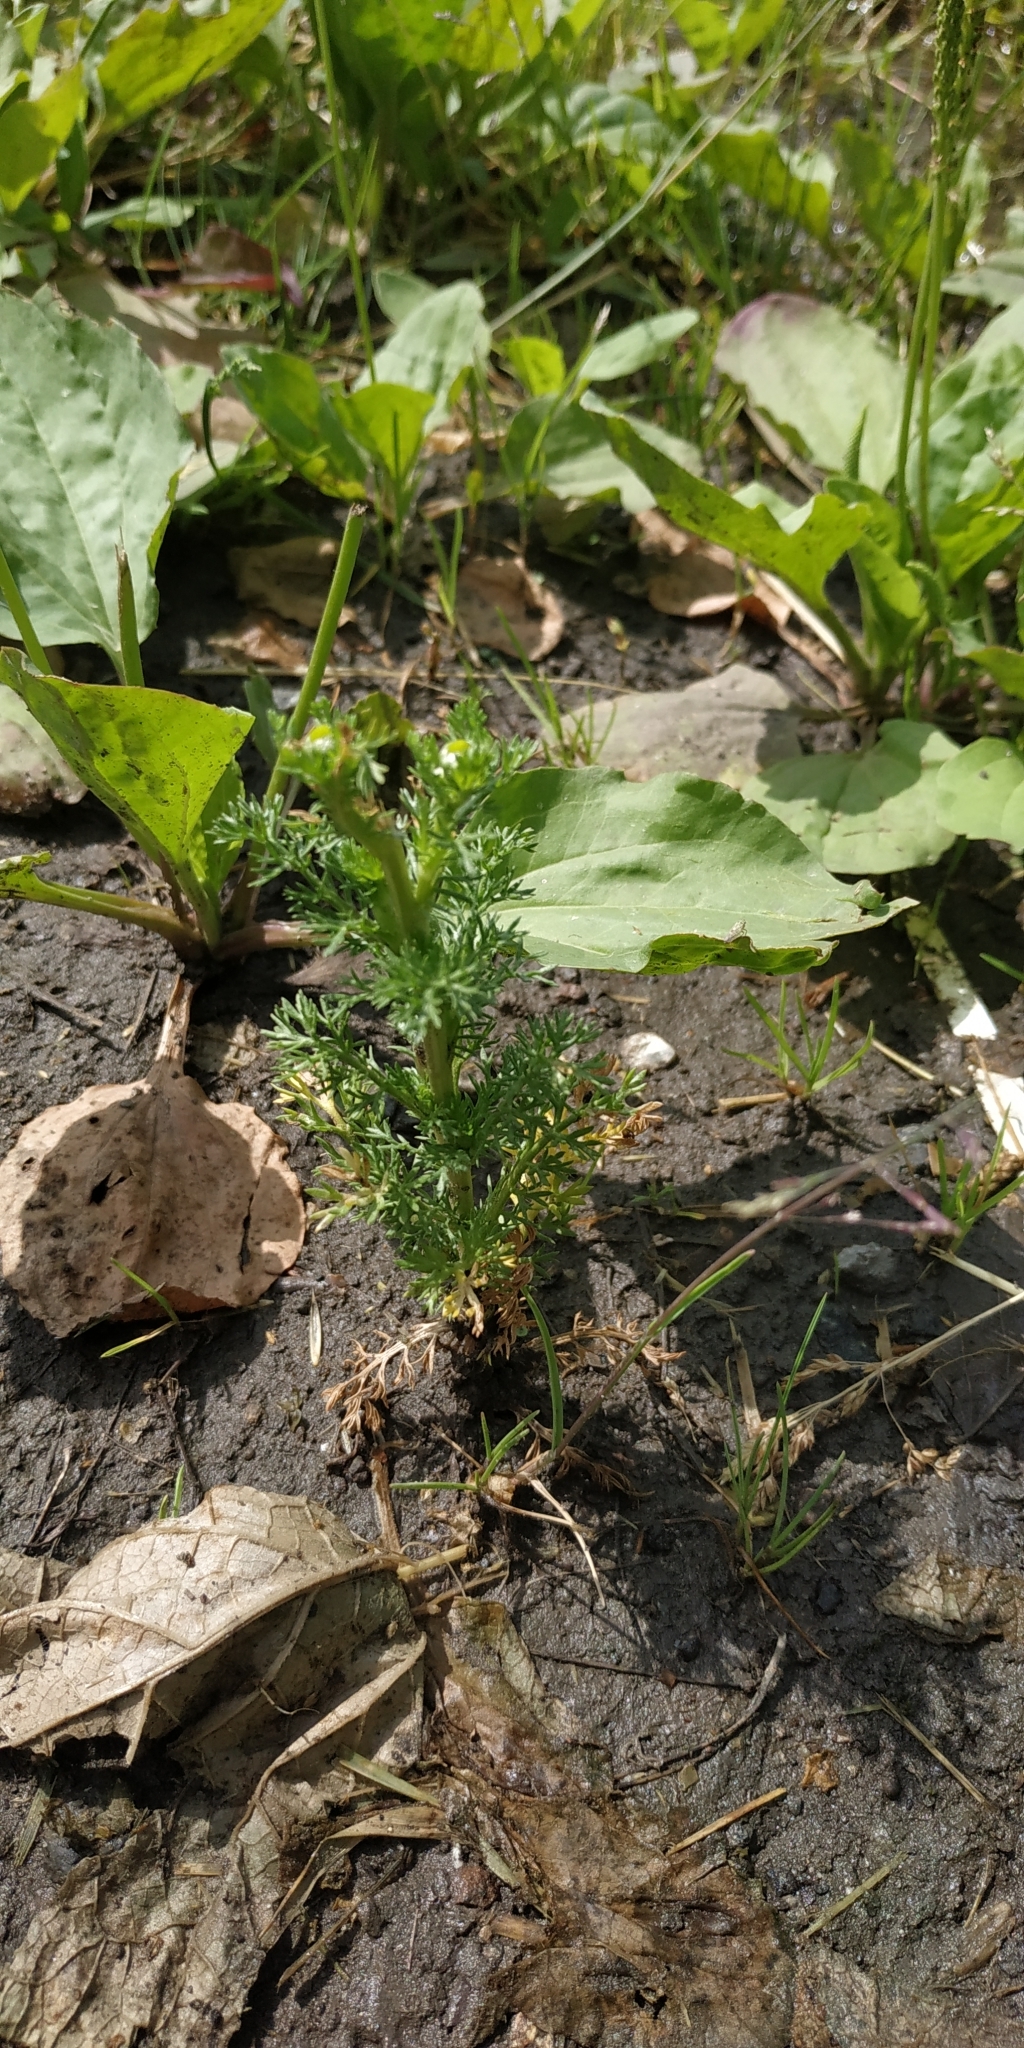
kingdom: Plantae
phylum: Tracheophyta
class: Magnoliopsida
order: Asterales
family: Asteraceae
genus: Matricaria
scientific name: Matricaria discoidea
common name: Disc mayweed
